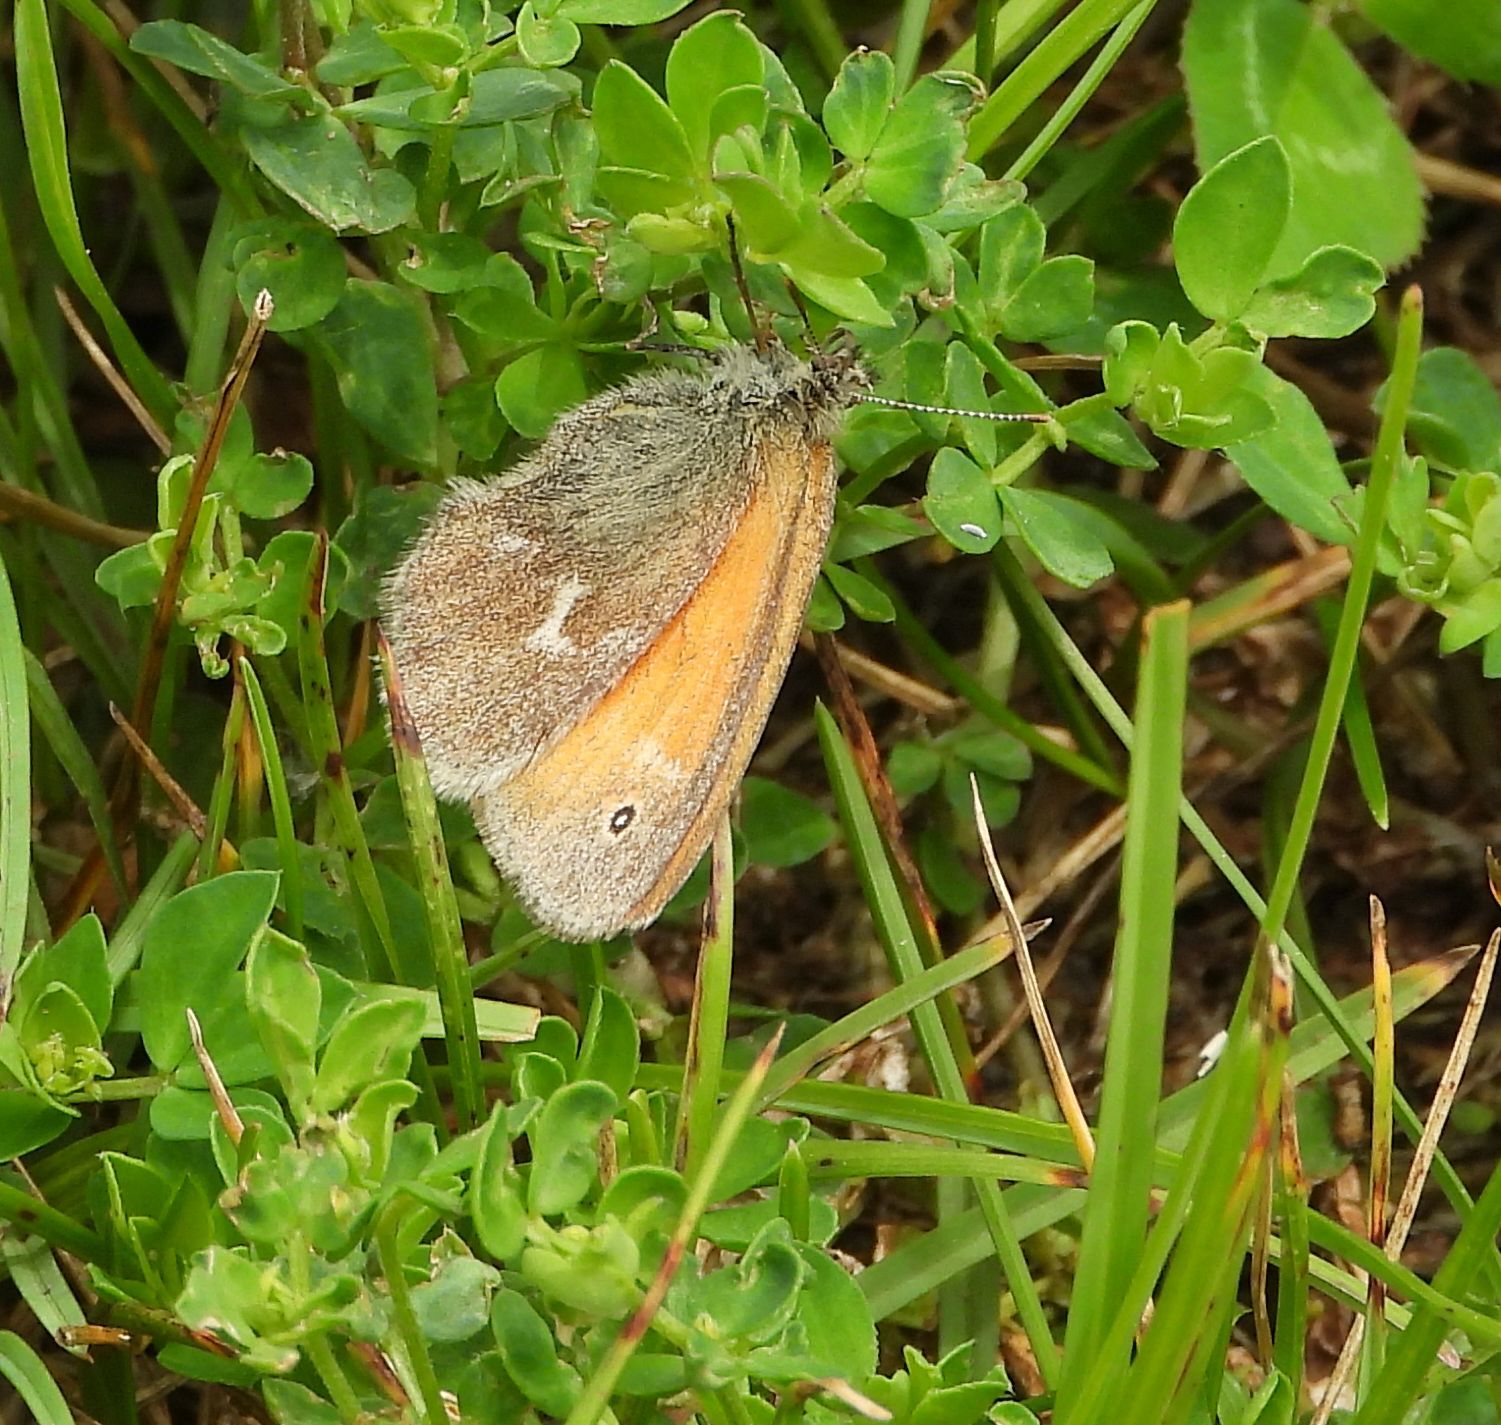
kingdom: Animalia
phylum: Arthropoda
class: Insecta
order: Lepidoptera
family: Nymphalidae
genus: Coenonympha
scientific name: Coenonympha california
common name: Common ringlet
